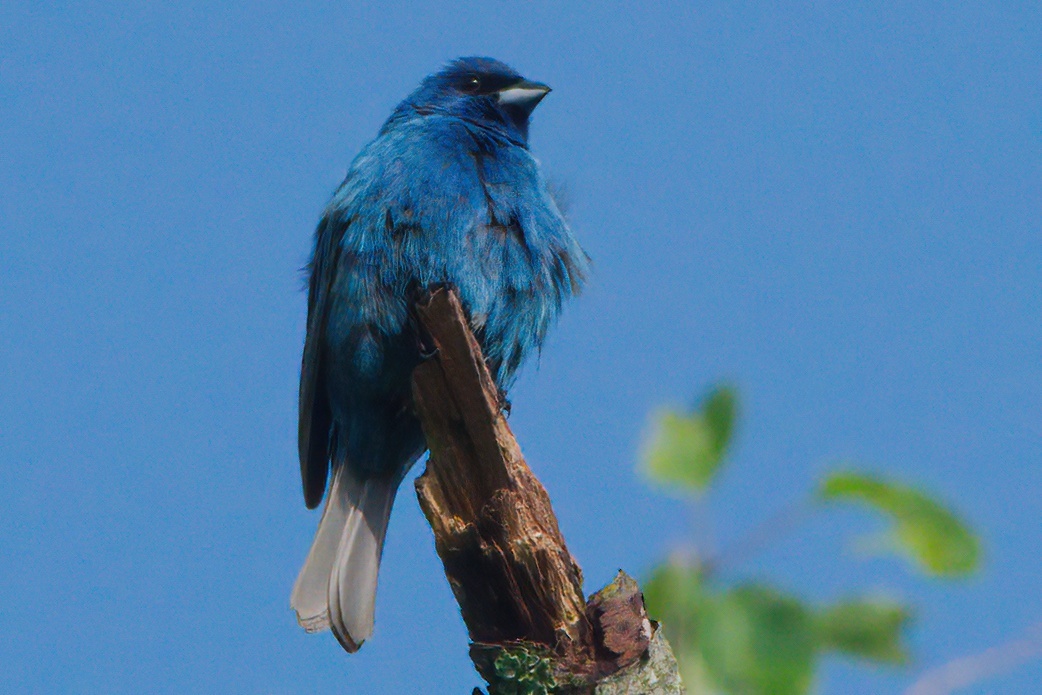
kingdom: Animalia
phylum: Chordata
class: Aves
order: Passeriformes
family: Cardinalidae
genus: Passerina
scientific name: Passerina cyanea
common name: Indigo bunting
